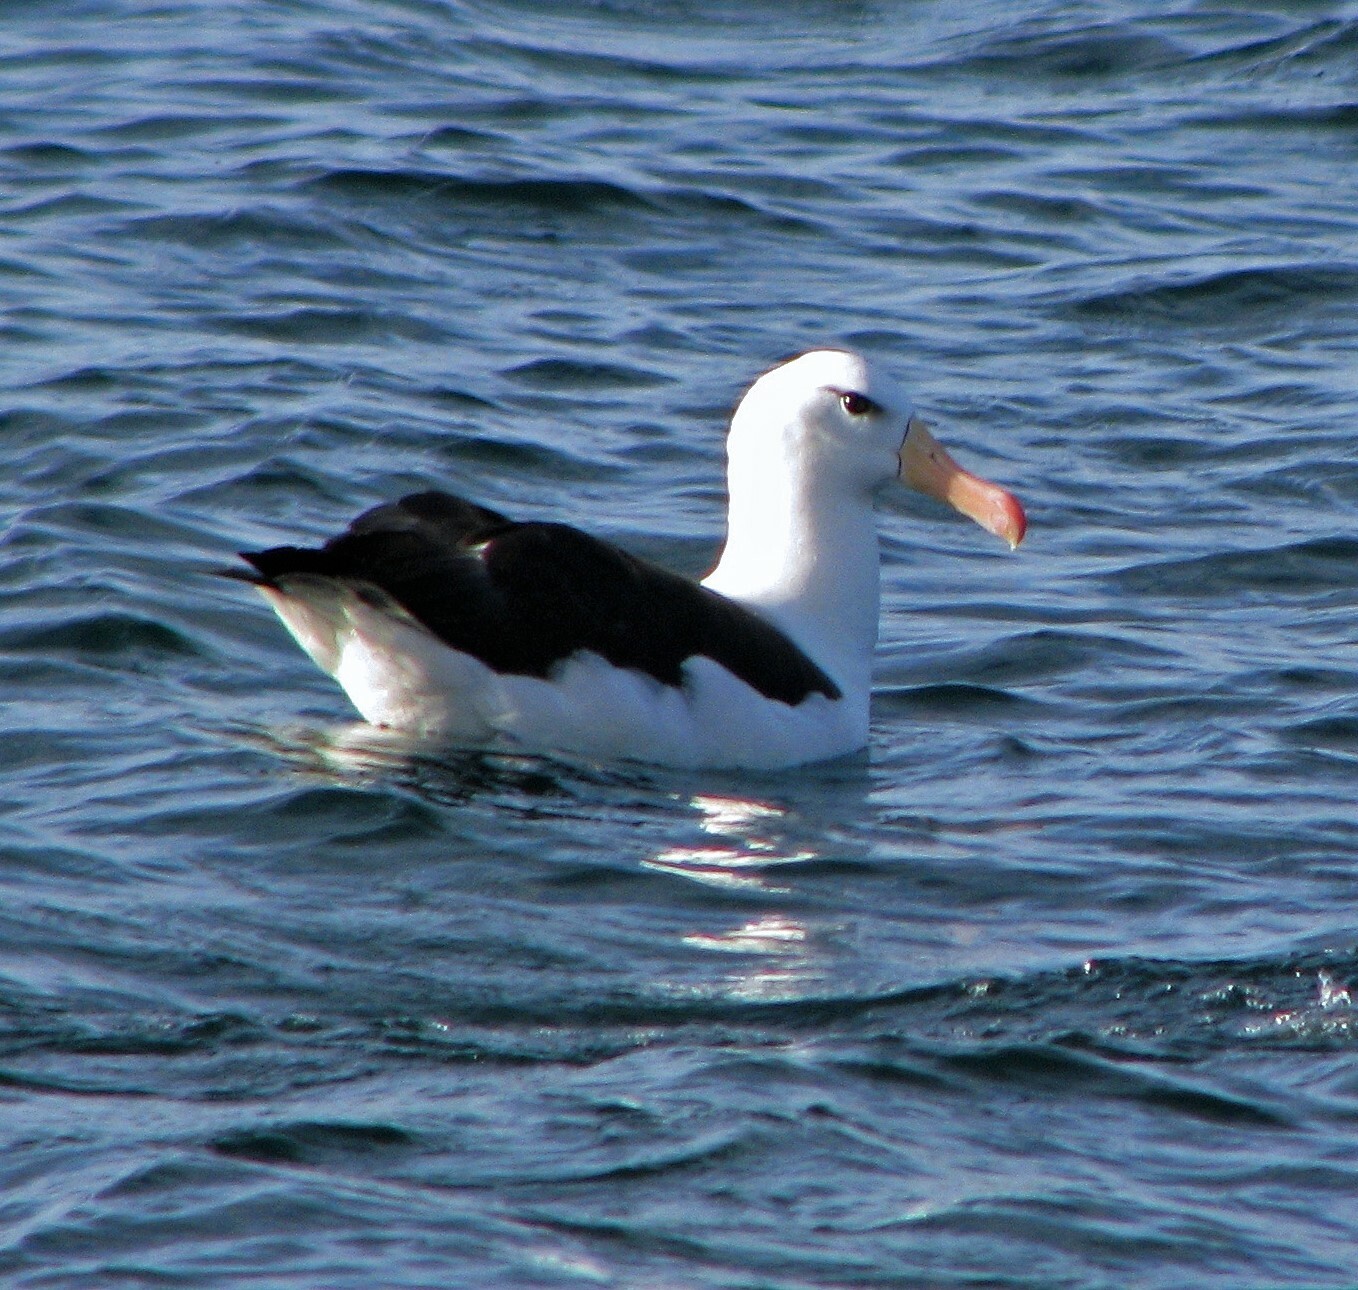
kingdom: Animalia
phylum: Chordata
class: Aves
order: Procellariiformes
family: Diomedeidae
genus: Thalassarche
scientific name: Thalassarche melanophris
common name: Black-browed albatross
